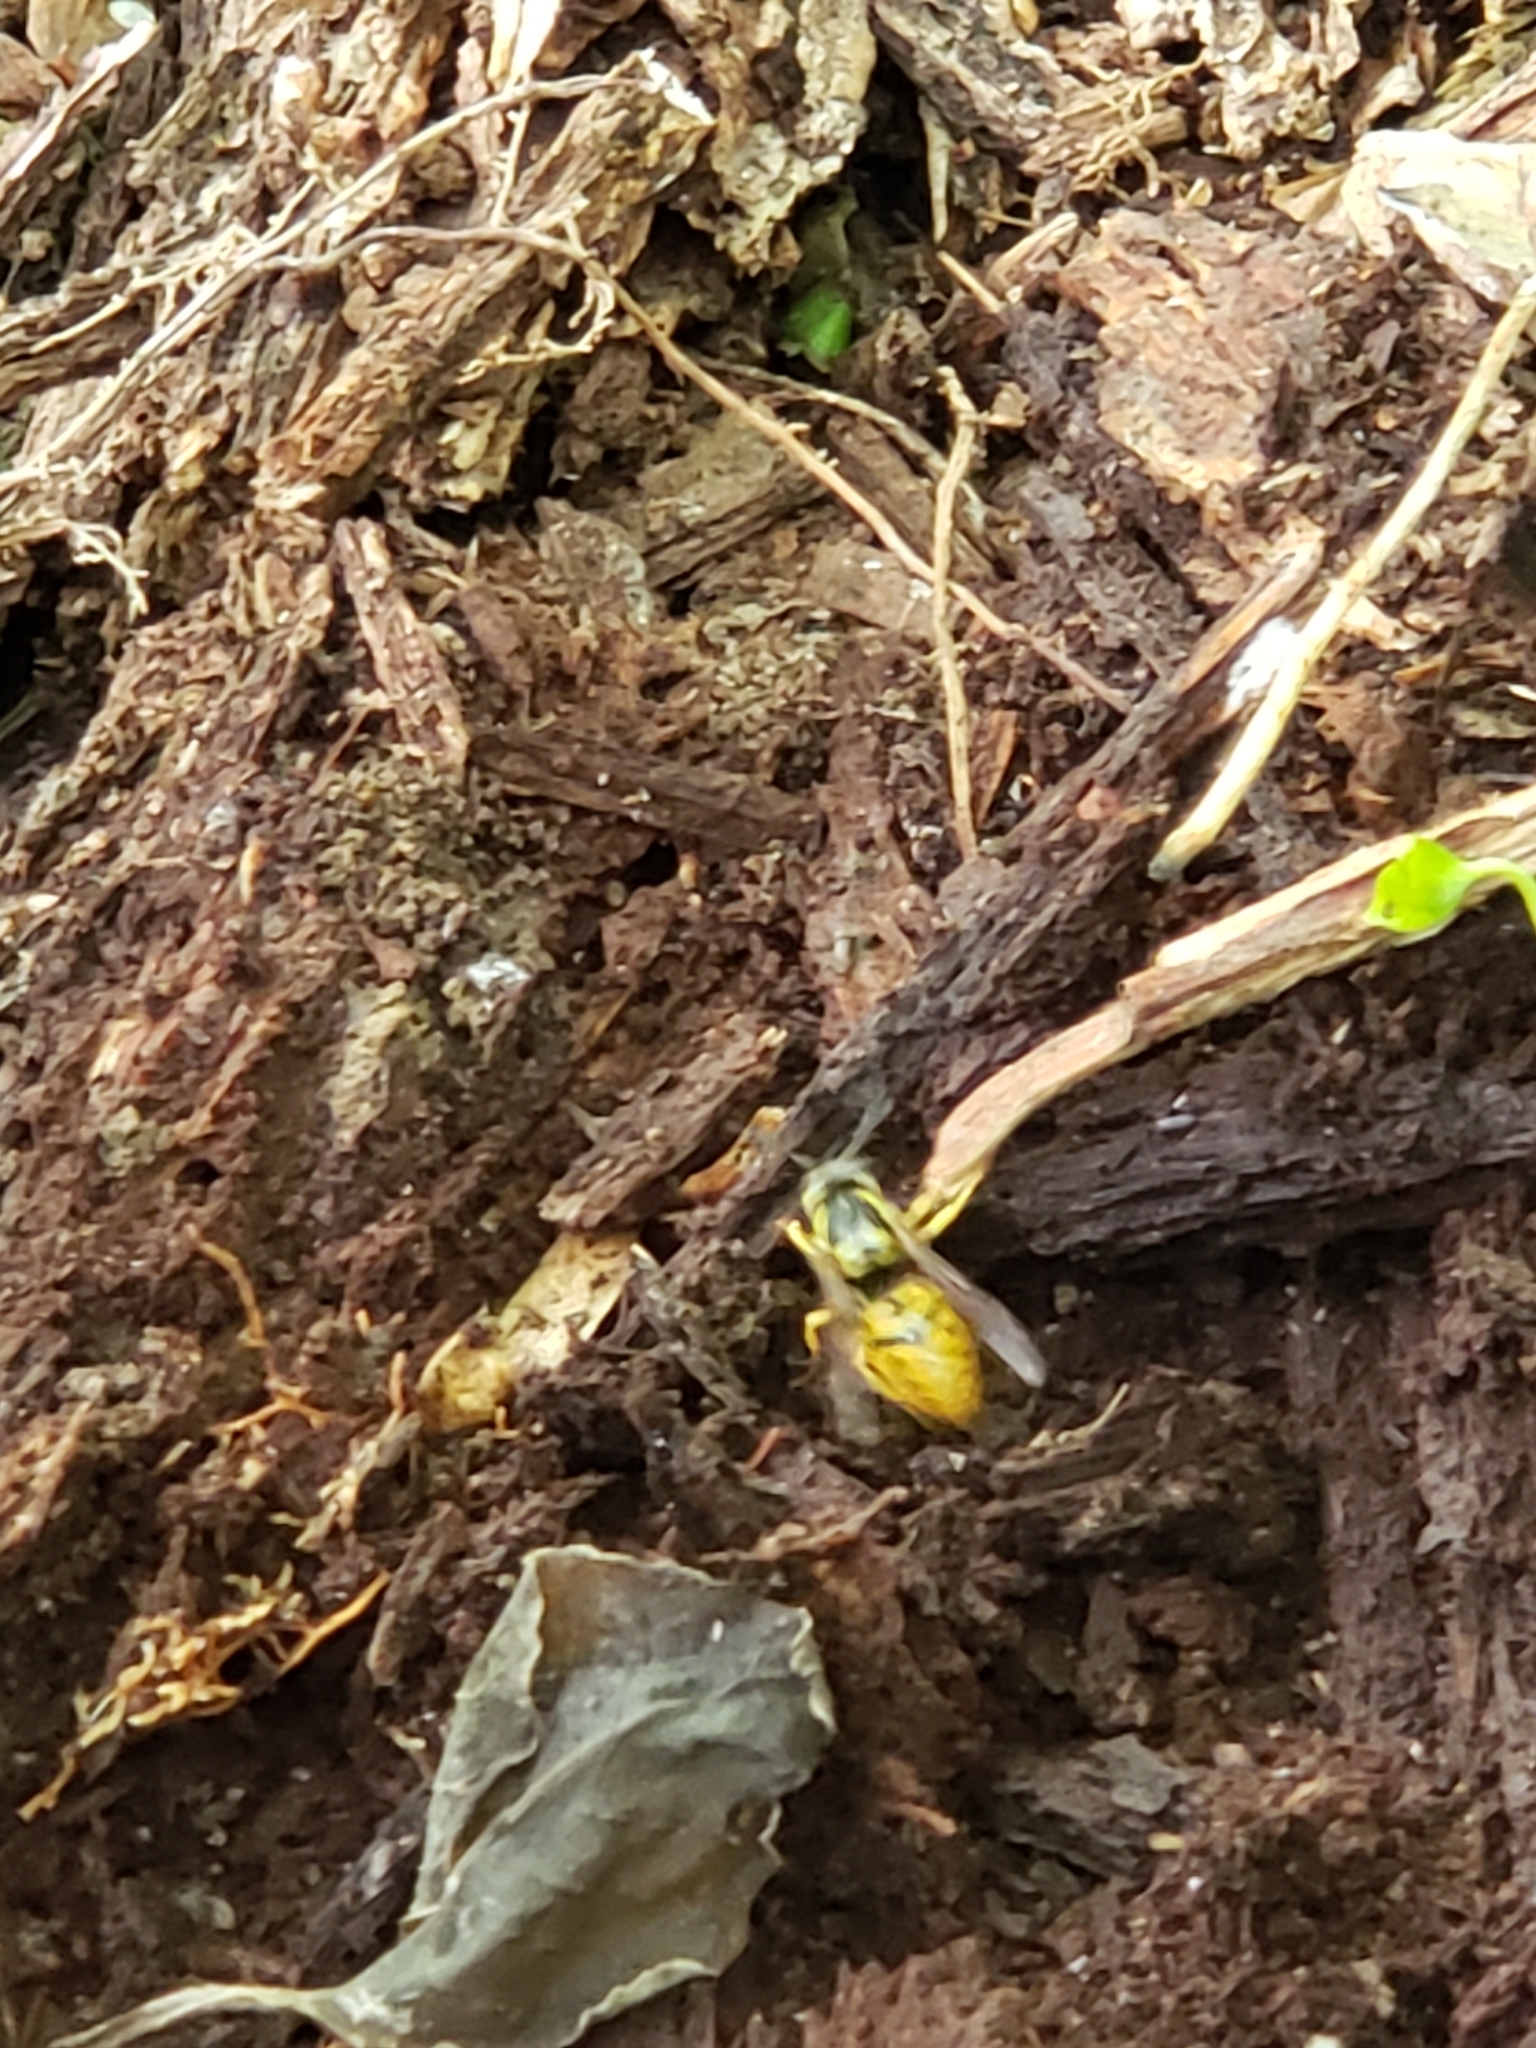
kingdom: Animalia
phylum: Arthropoda
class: Insecta
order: Hymenoptera
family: Vespidae
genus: Vespula
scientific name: Vespula maculifrons
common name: Eastern yellowjacket
